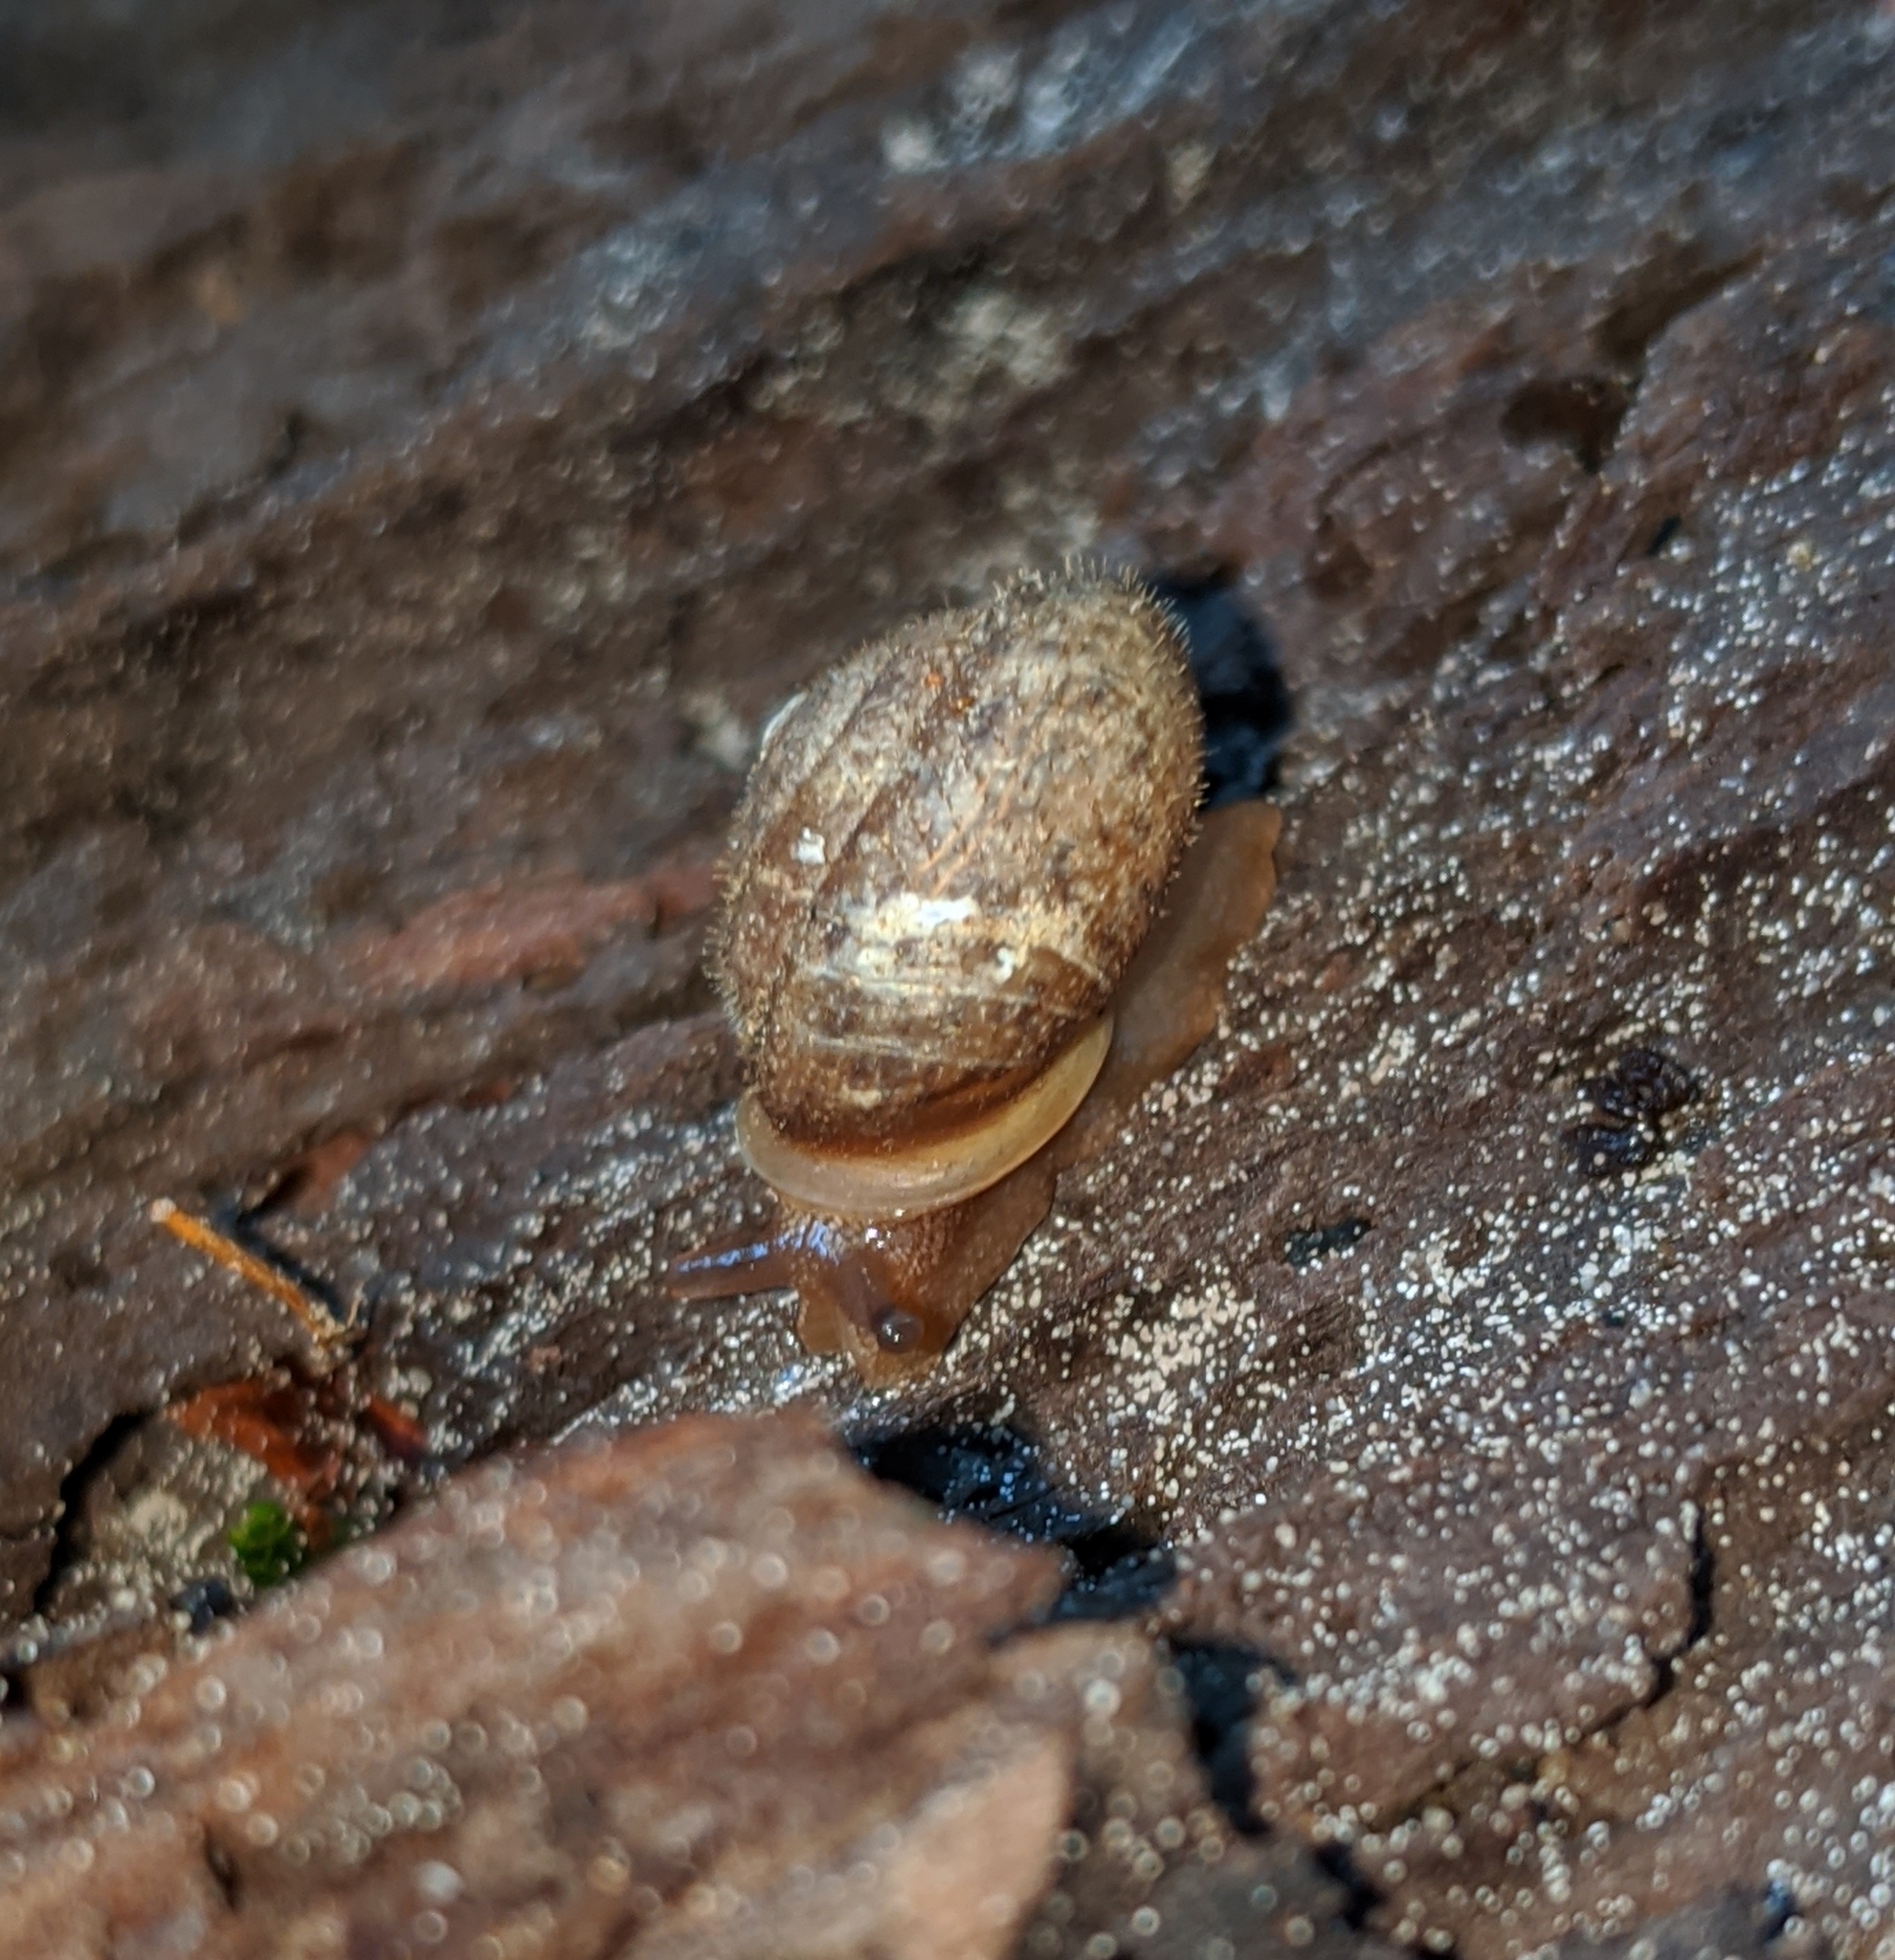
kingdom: Animalia
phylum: Mollusca
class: Gastropoda
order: Stylommatophora
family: Polygyridae
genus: Vespericola
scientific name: Vespericola columbianus
